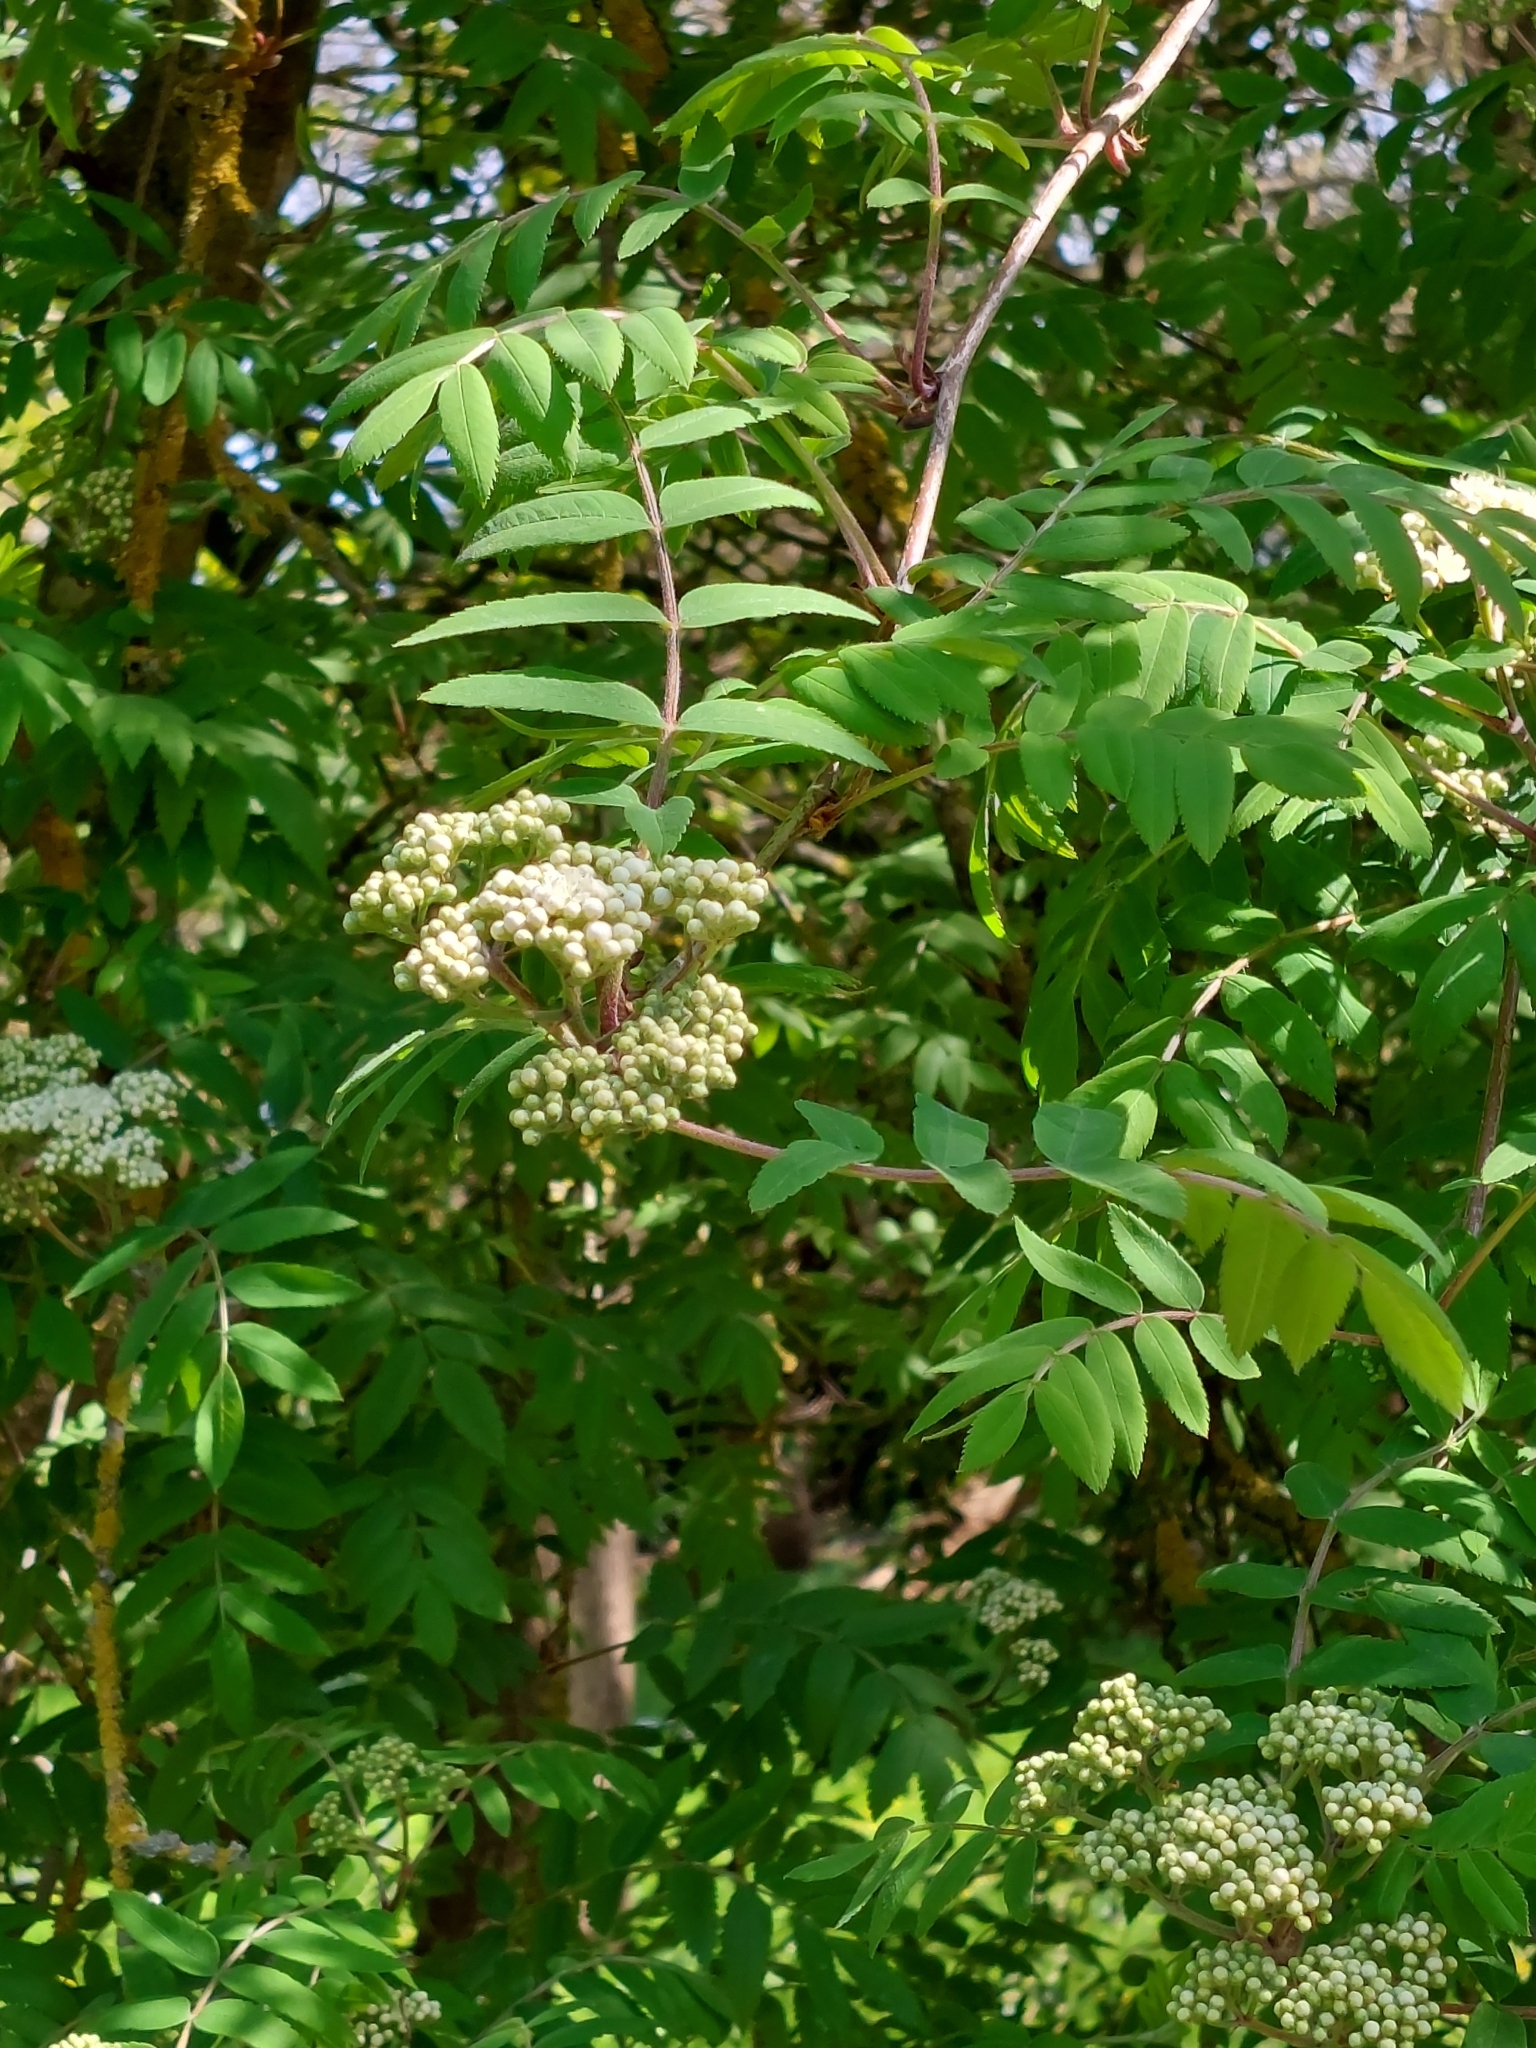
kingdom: Plantae
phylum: Tracheophyta
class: Magnoliopsida
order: Rosales
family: Rosaceae
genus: Sorbus
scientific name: Sorbus aucuparia
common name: Rowan
